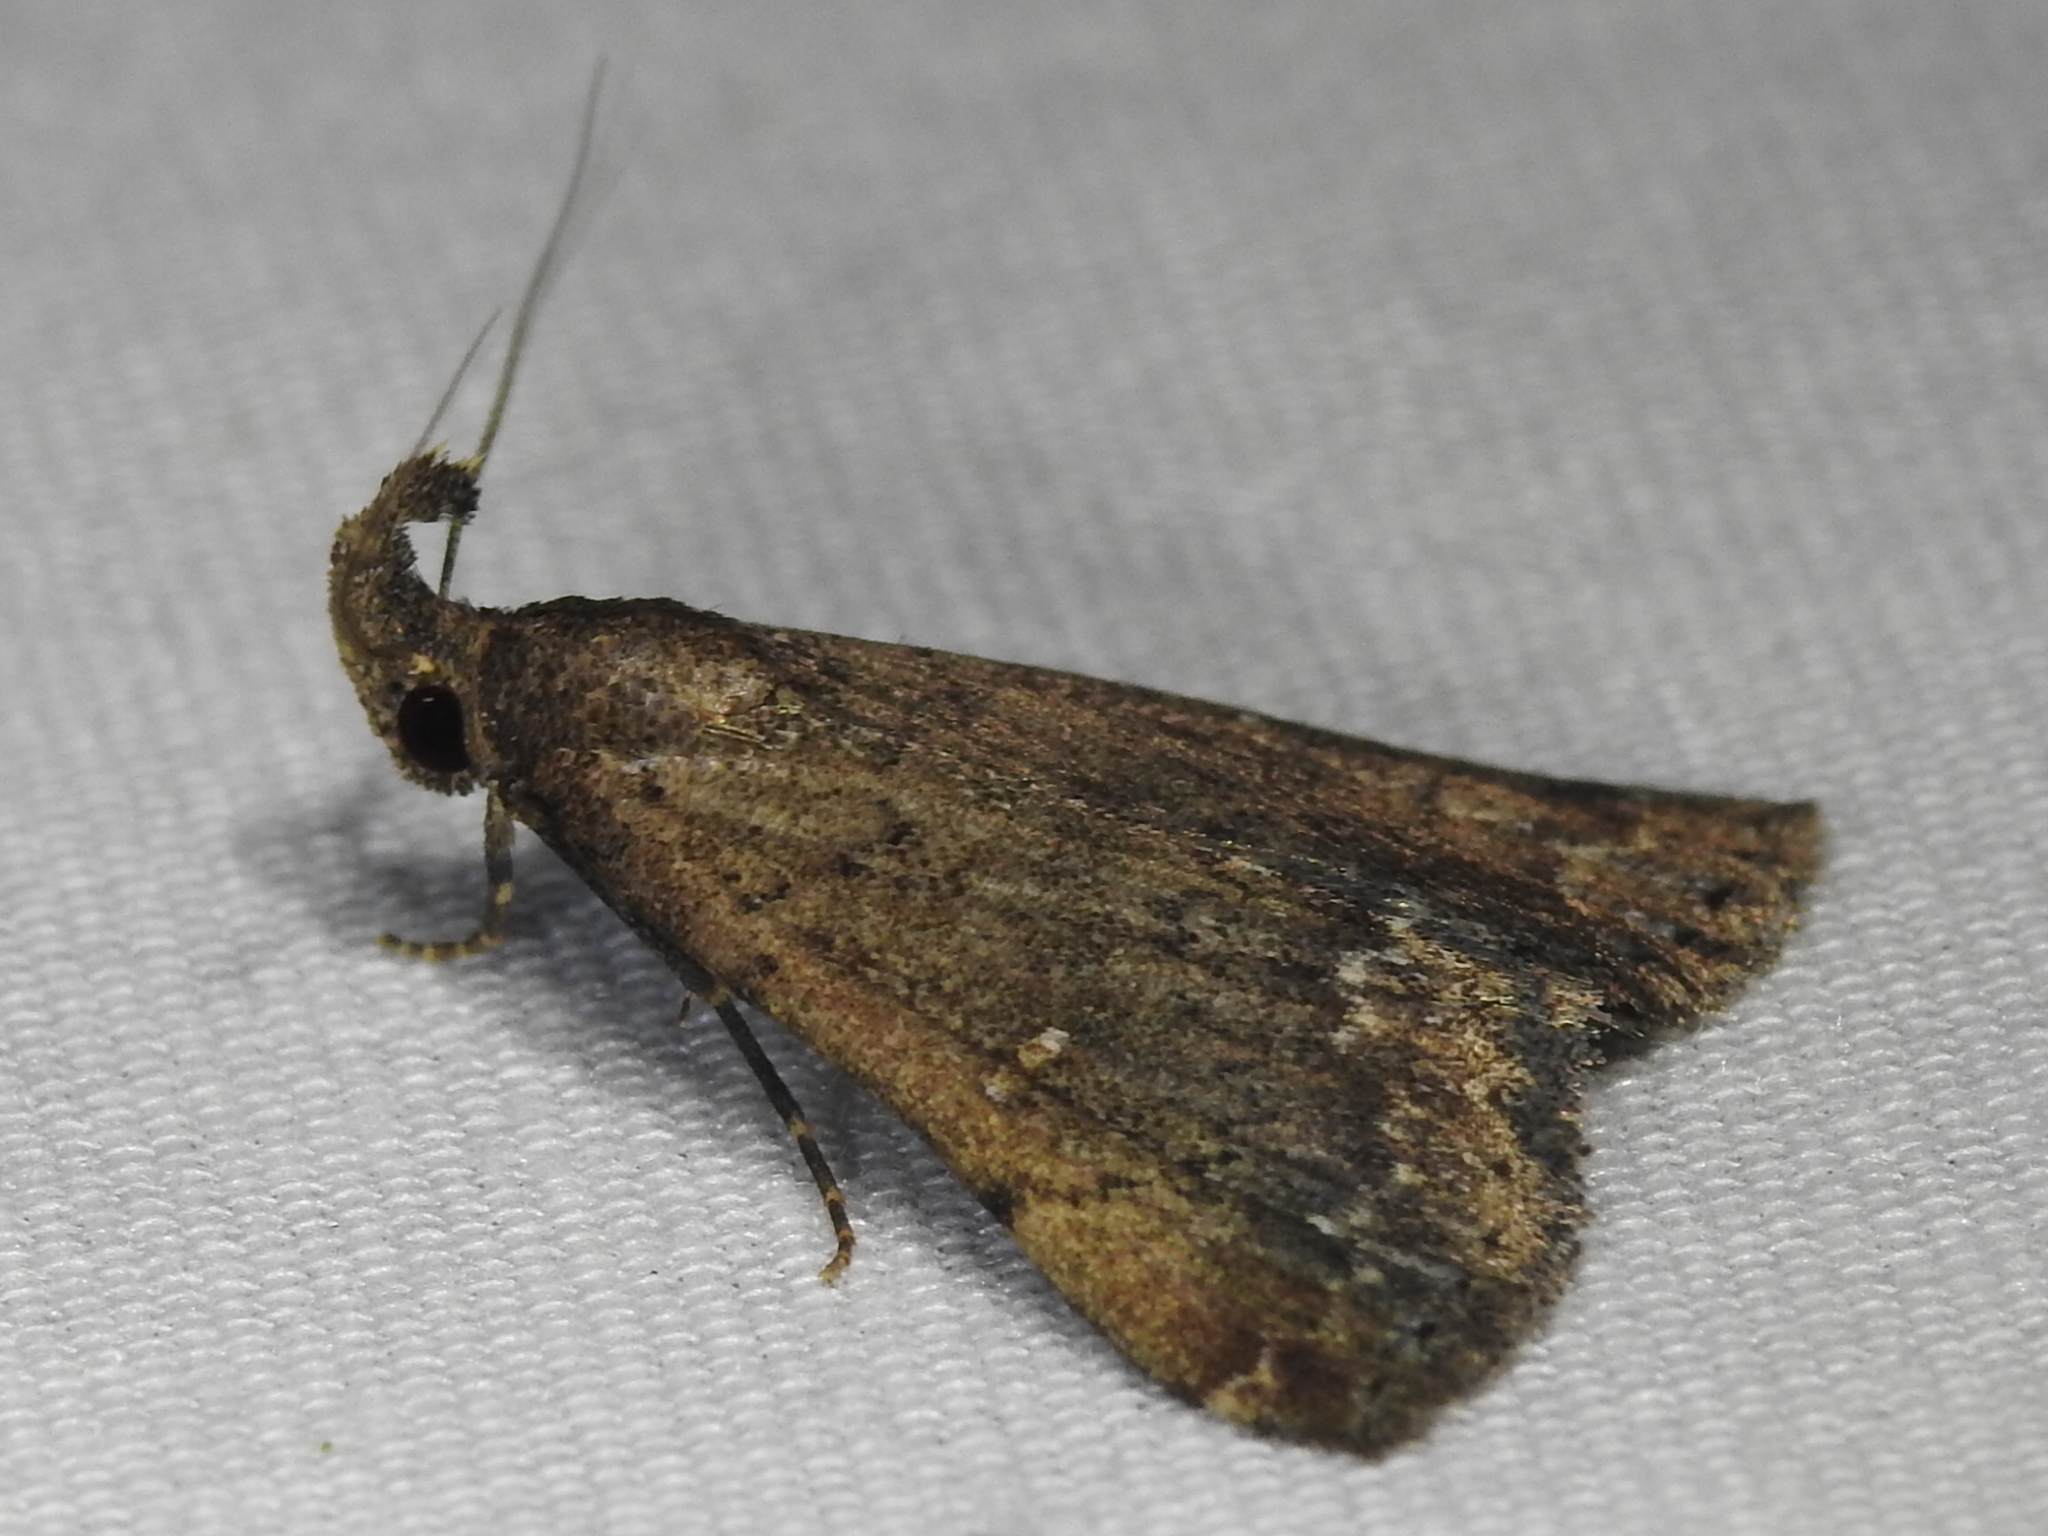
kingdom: Animalia
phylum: Arthropoda
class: Insecta
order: Lepidoptera
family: Erebidae
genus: Hypenula
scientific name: Hypenula cacuminalis
